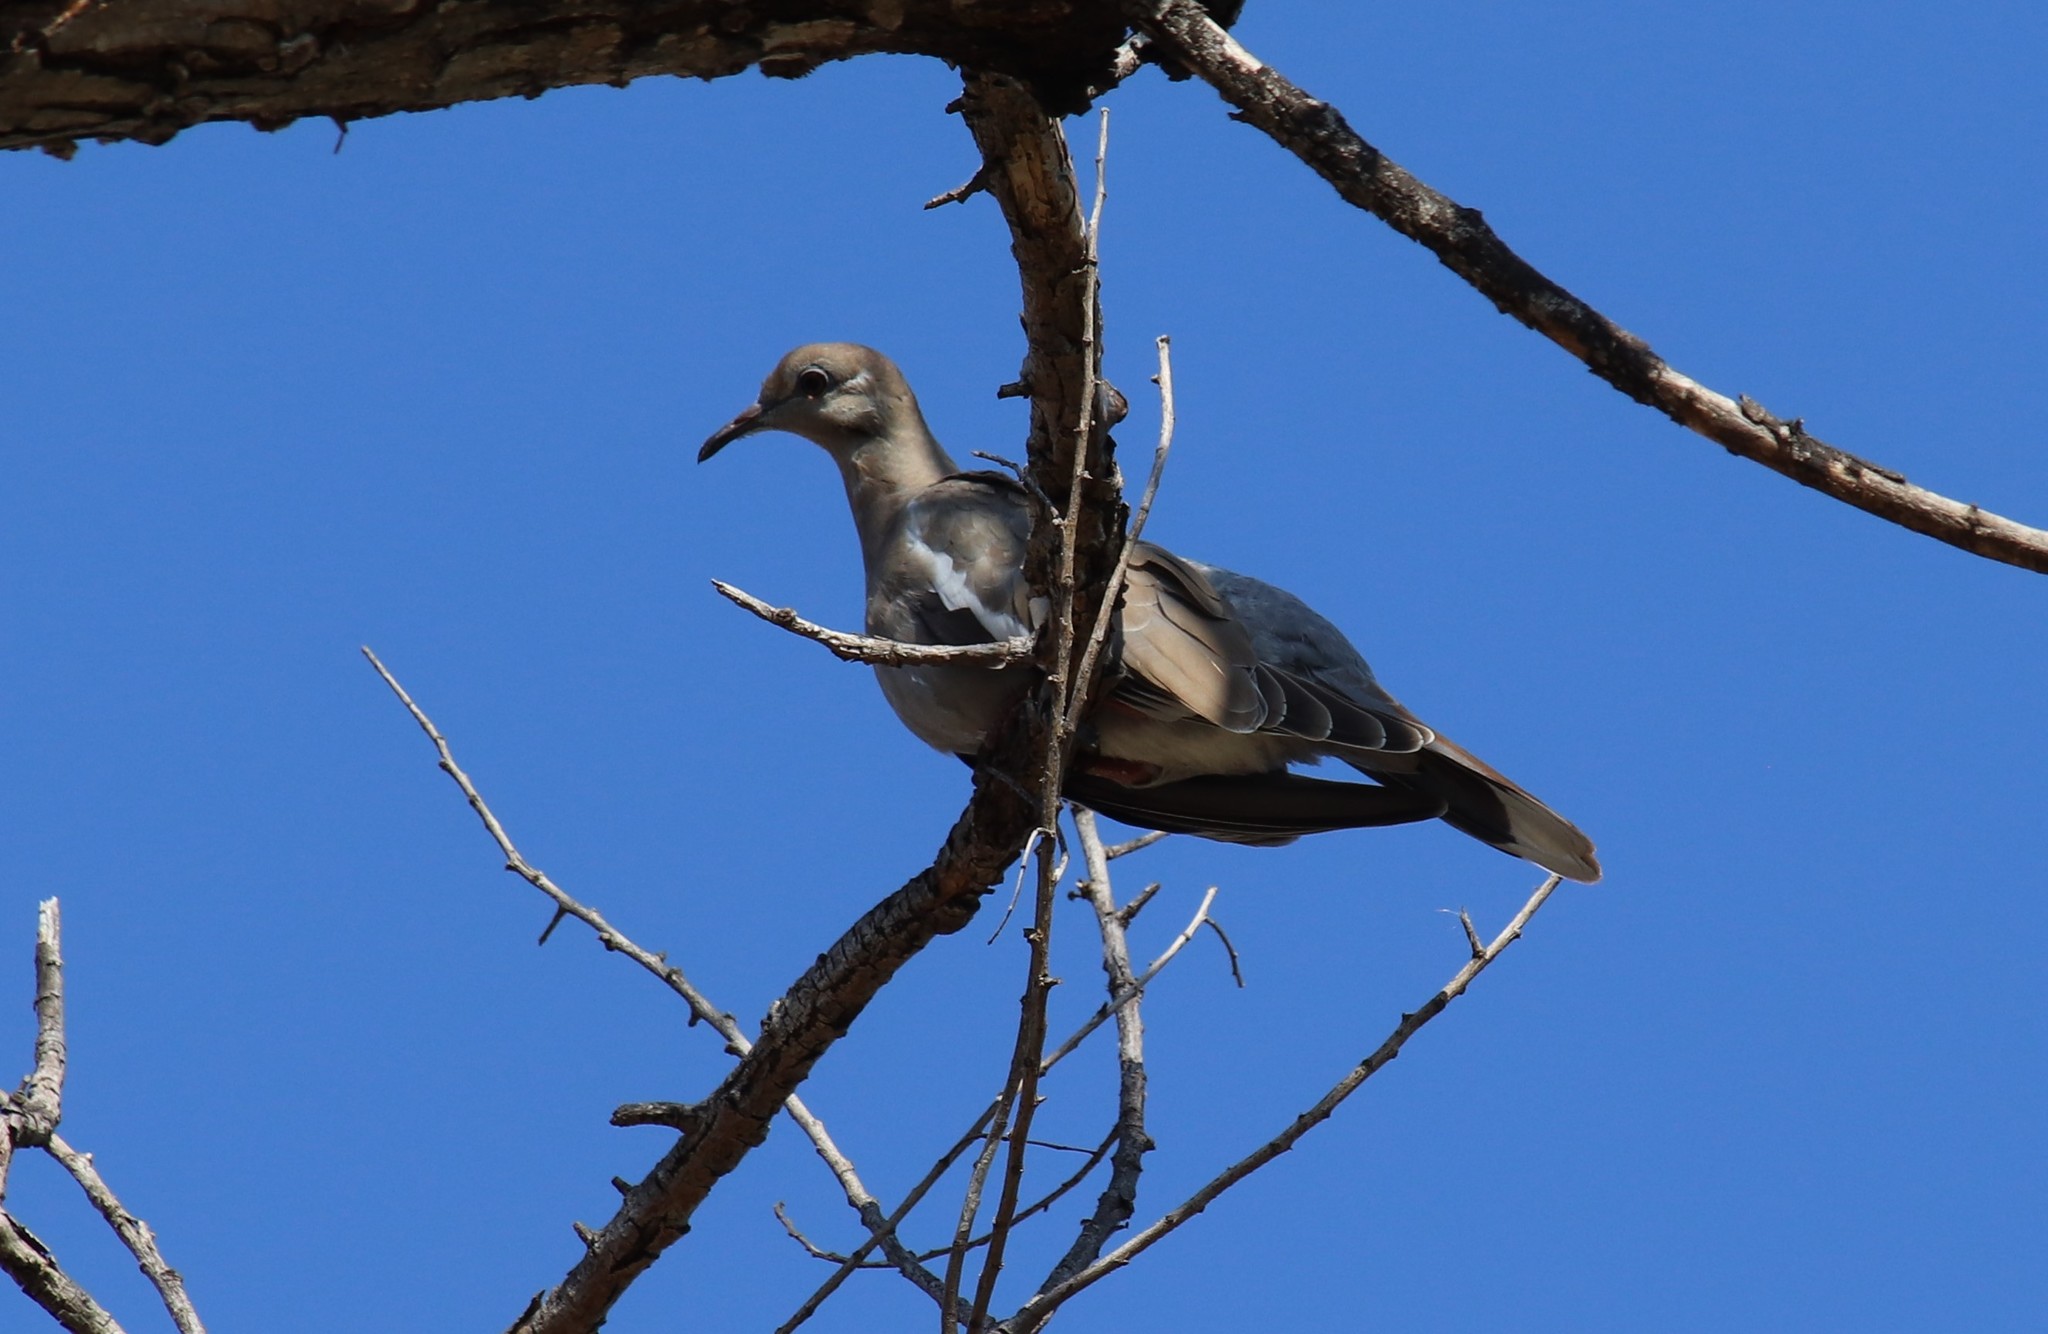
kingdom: Animalia
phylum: Chordata
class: Aves
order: Columbiformes
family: Columbidae
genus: Zenaida
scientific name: Zenaida asiatica
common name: White-winged dove
